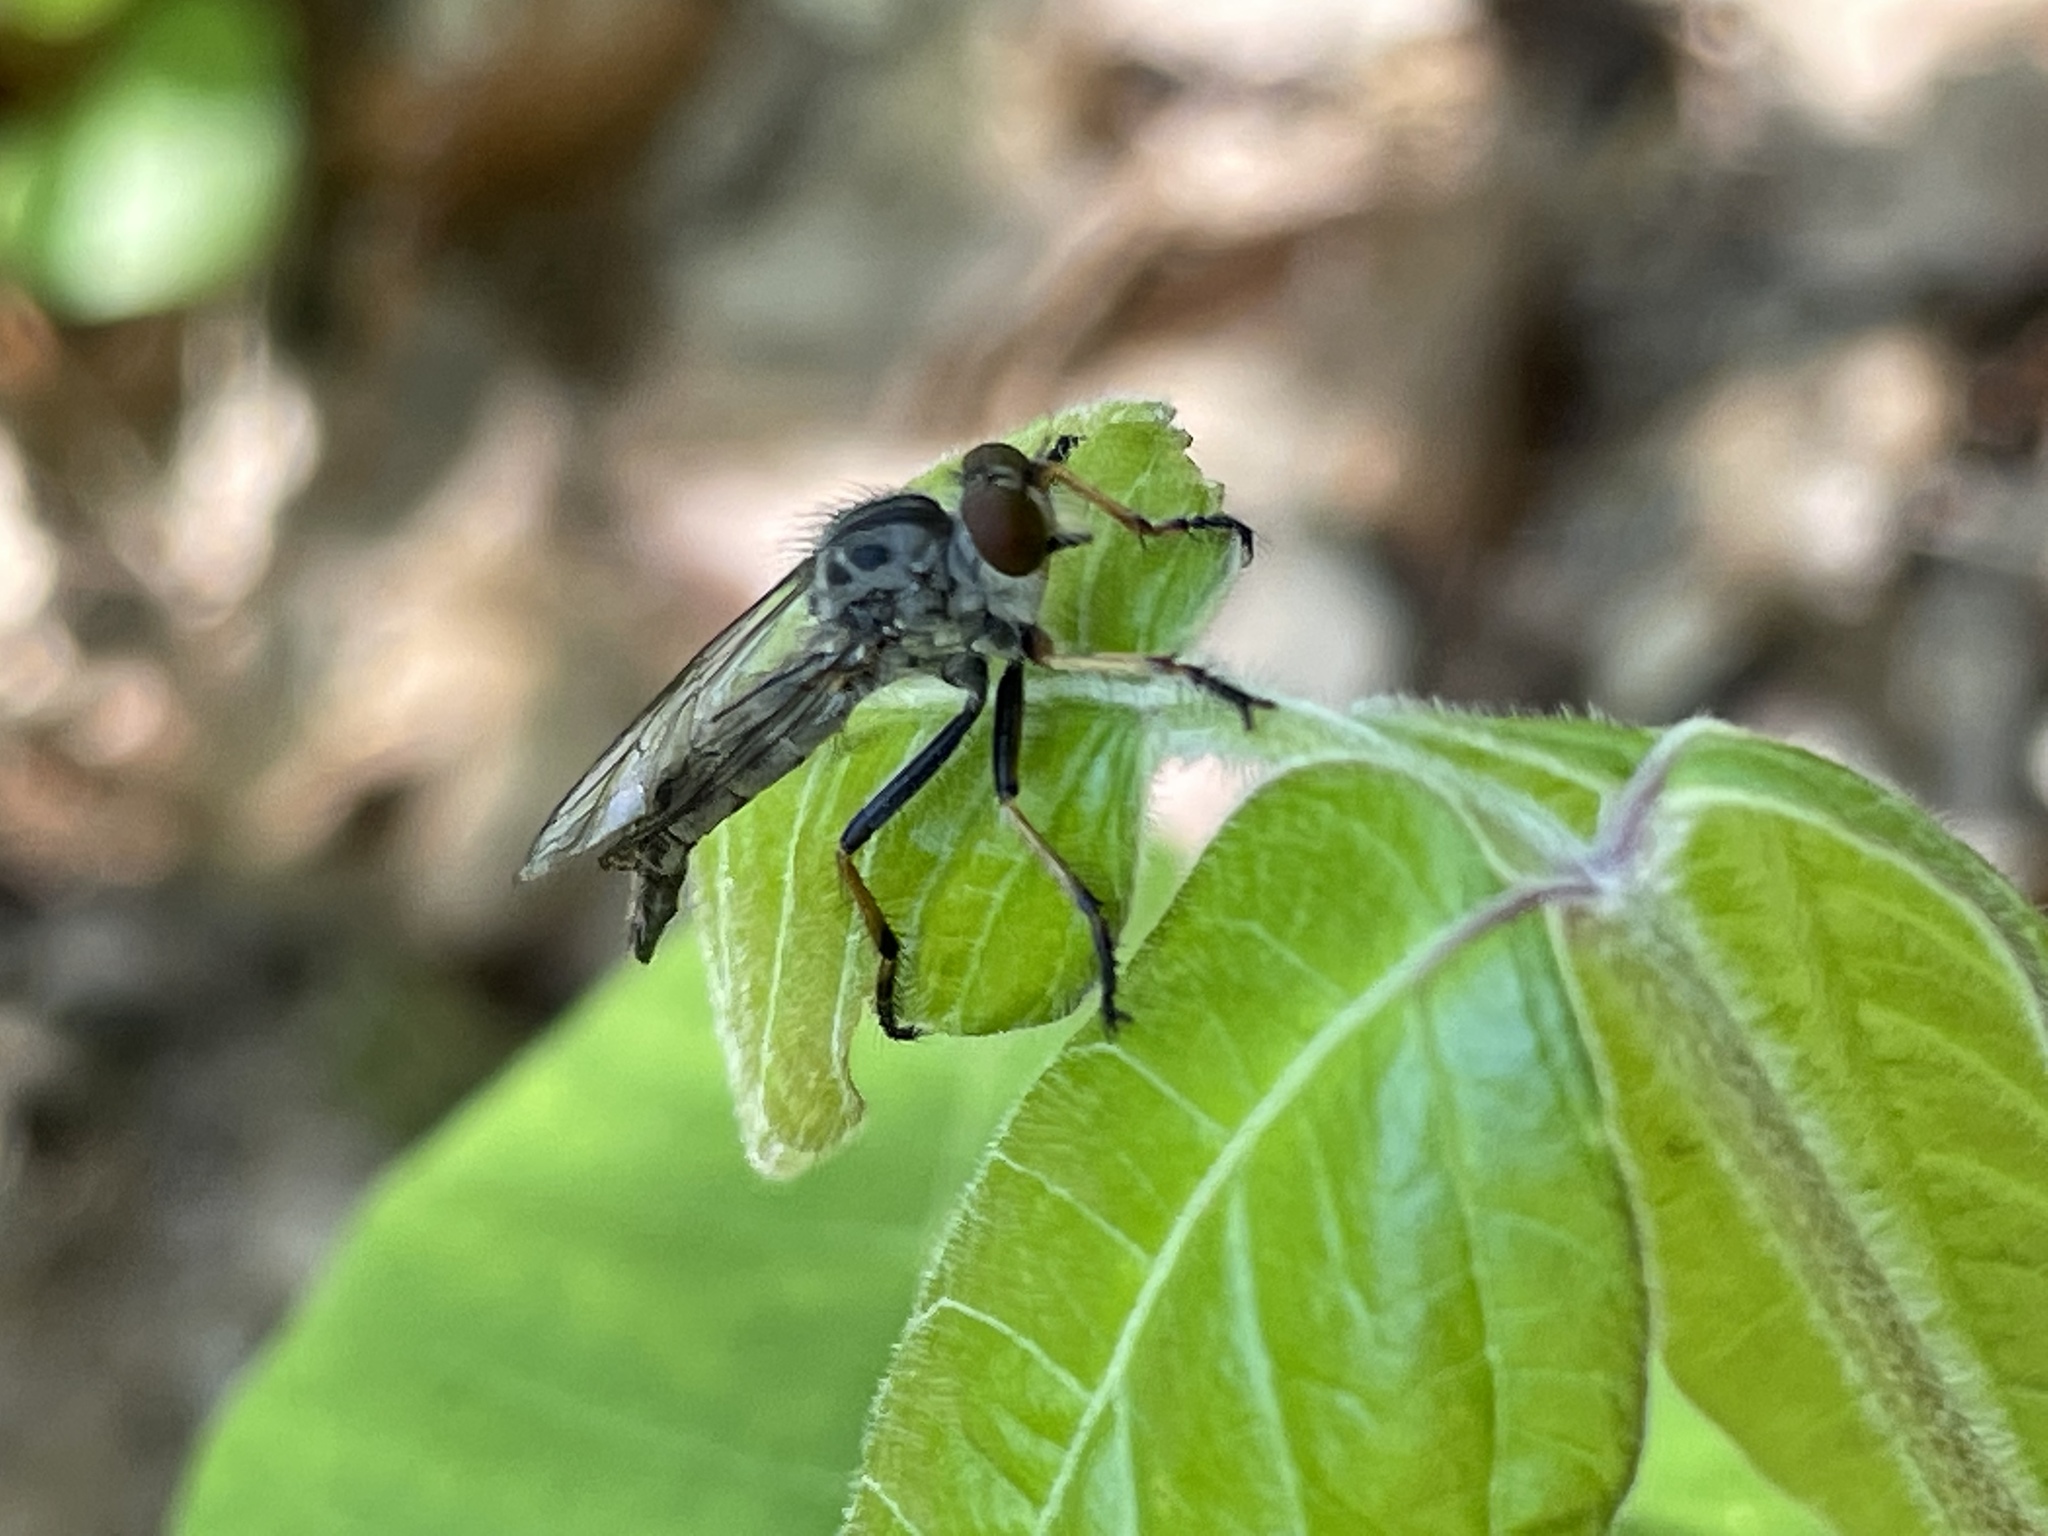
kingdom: Animalia
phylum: Arthropoda
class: Insecta
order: Diptera
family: Asilidae
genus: Asilus
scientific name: Asilus flavofemoratus
